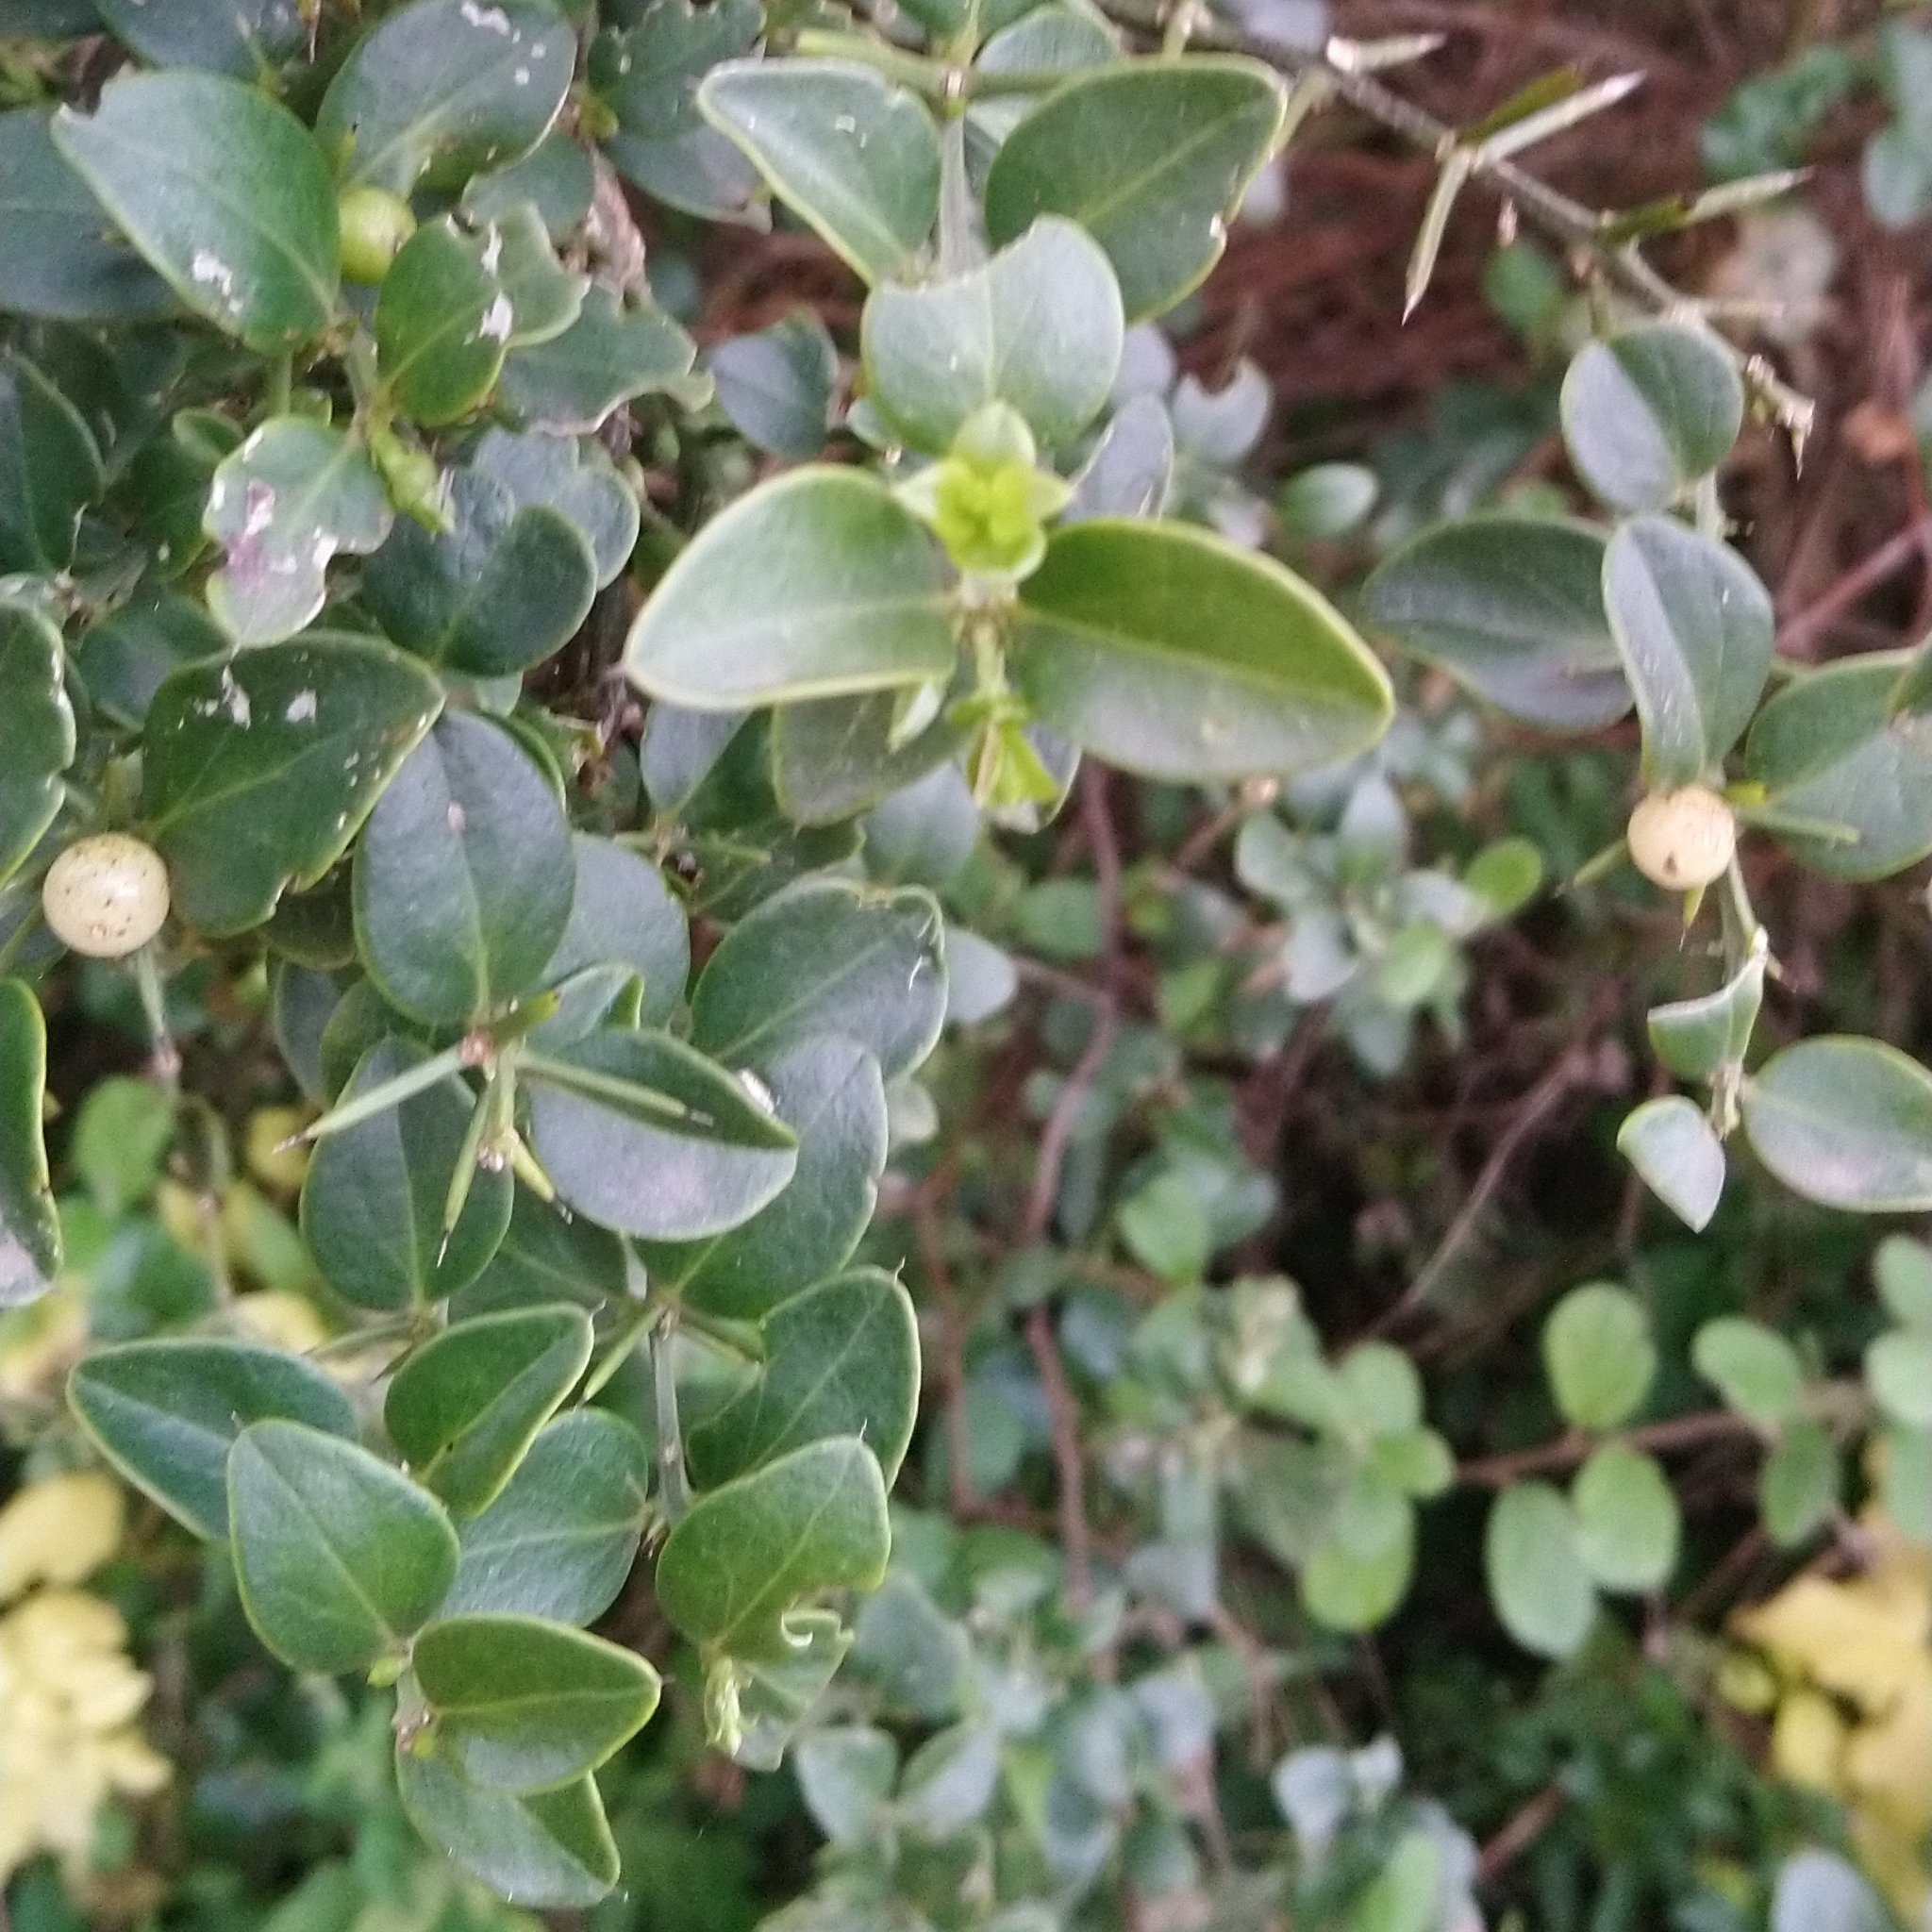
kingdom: Plantae
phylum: Tracheophyta
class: Magnoliopsida
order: Brassicales
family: Salvadoraceae
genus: Azima
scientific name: Azima tetracantha
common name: Needle bush
